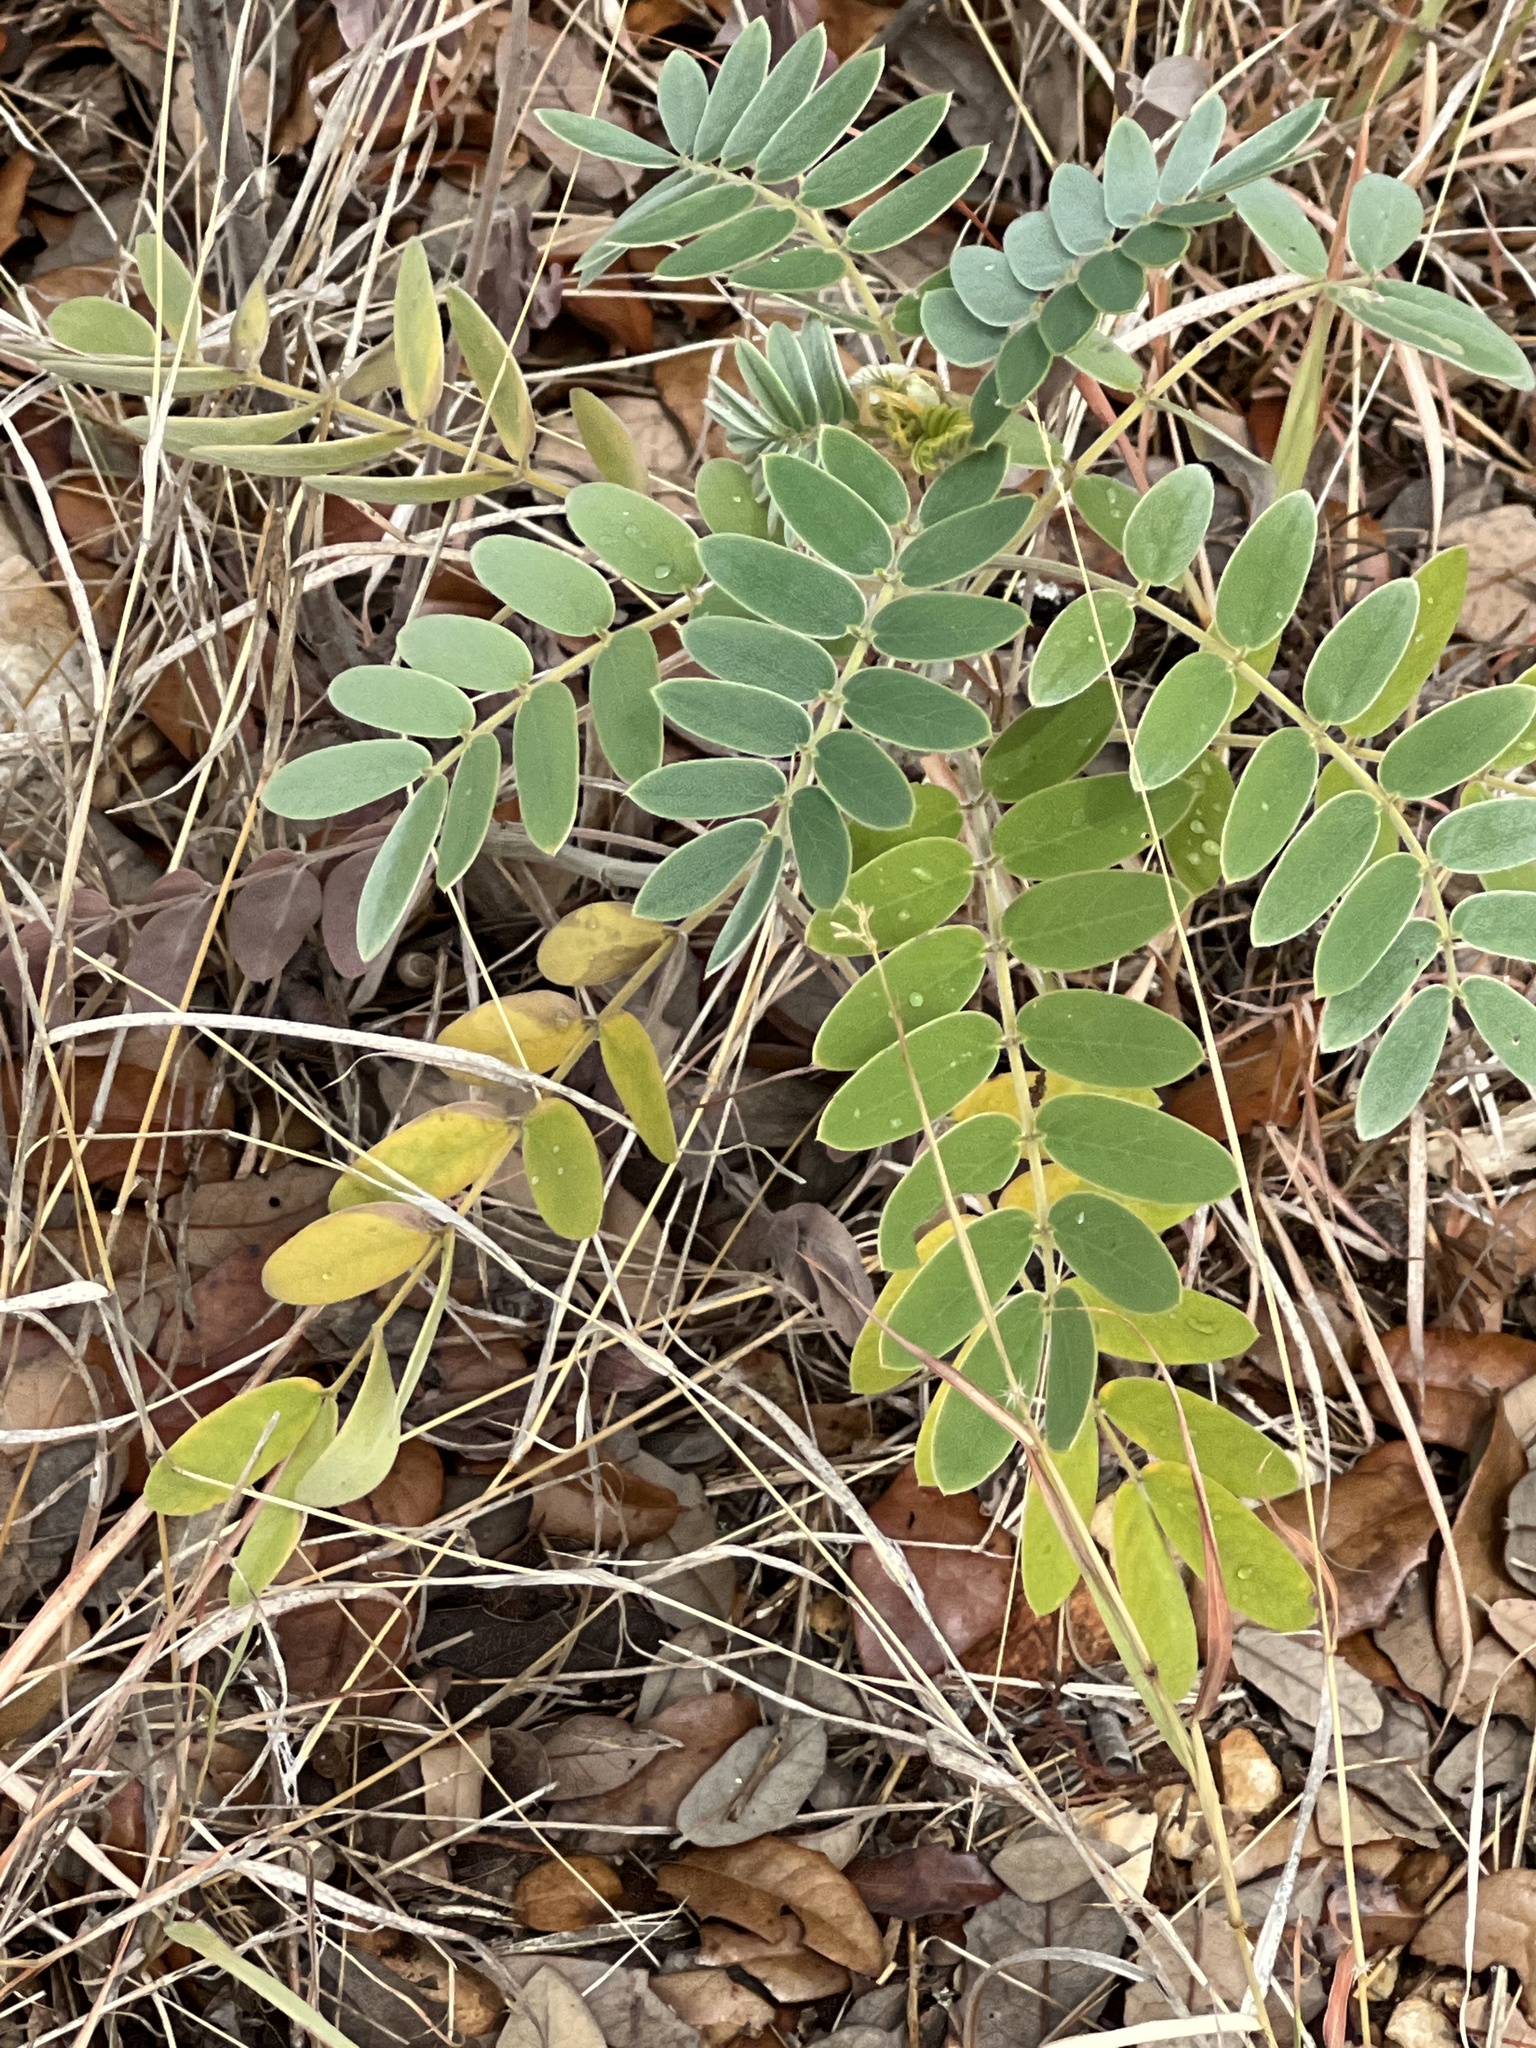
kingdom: Plantae
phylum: Tracheophyta
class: Magnoliopsida
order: Fabales
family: Fabaceae
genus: Senna
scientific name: Senna lindheimeriana
